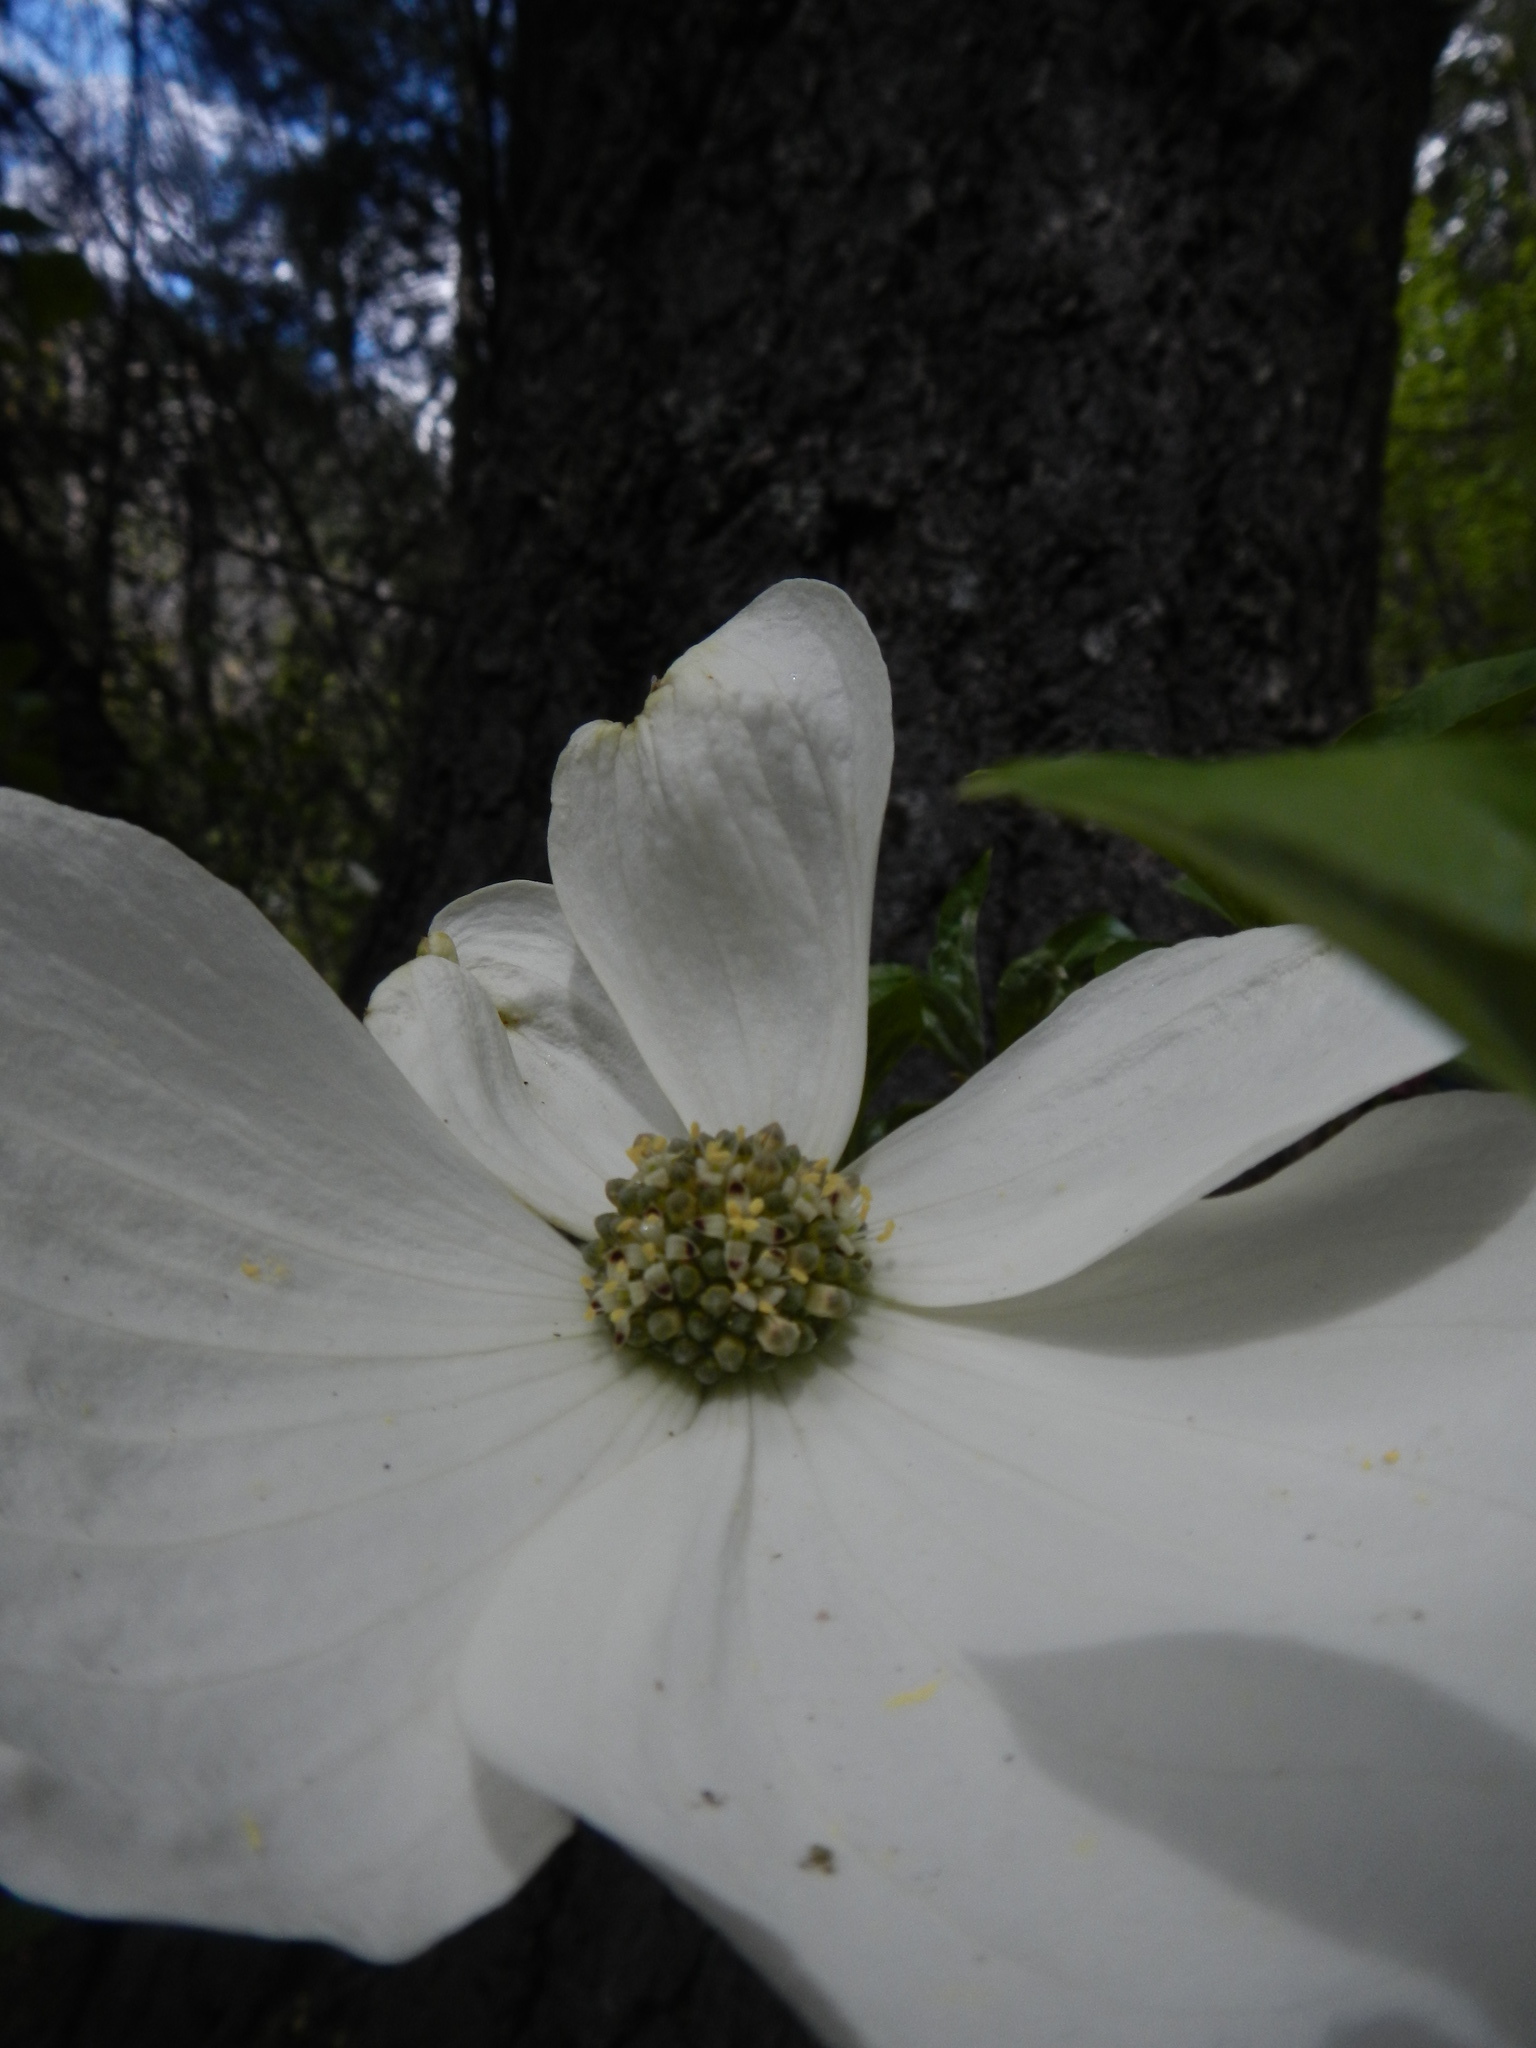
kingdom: Plantae
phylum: Tracheophyta
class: Magnoliopsida
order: Cornales
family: Cornaceae
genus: Cornus
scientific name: Cornus nuttallii
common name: Pacific dogwood
